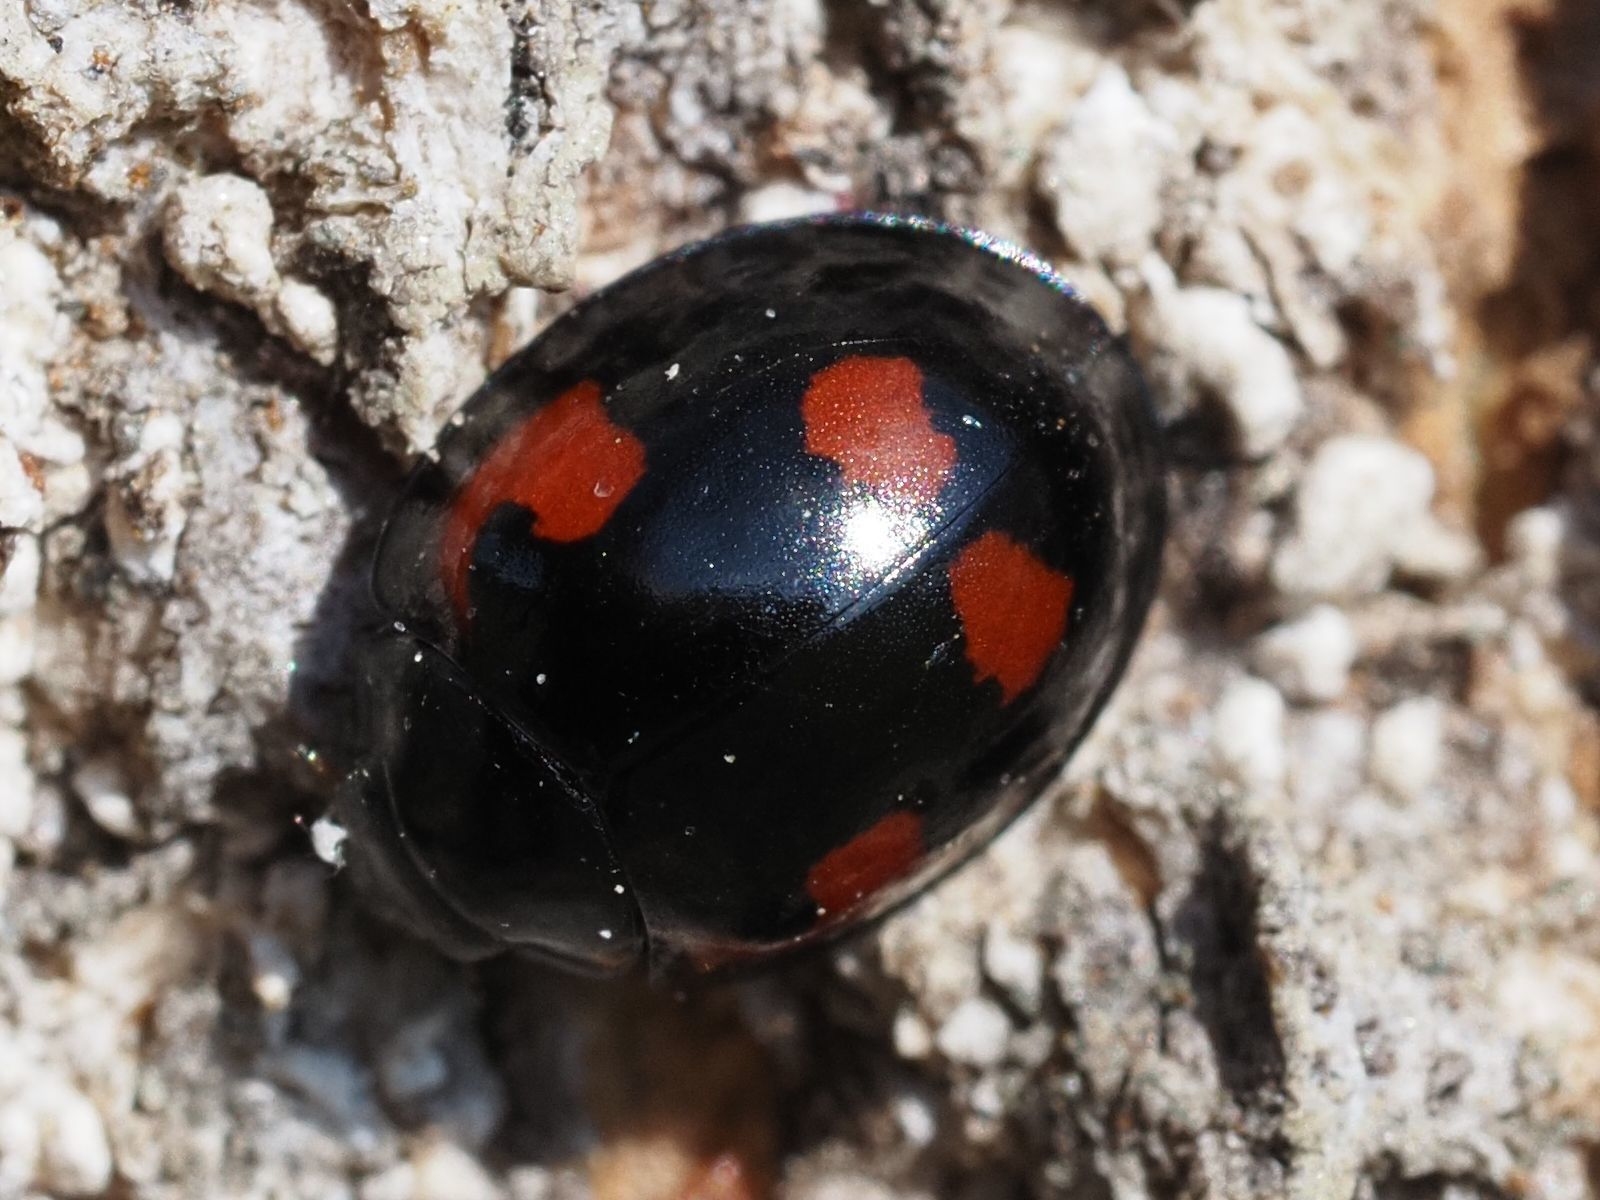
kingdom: Animalia
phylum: Arthropoda
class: Insecta
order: Coleoptera
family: Coccinellidae
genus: Brumus
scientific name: Brumus quadripustulatus
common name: Ladybird beetle
